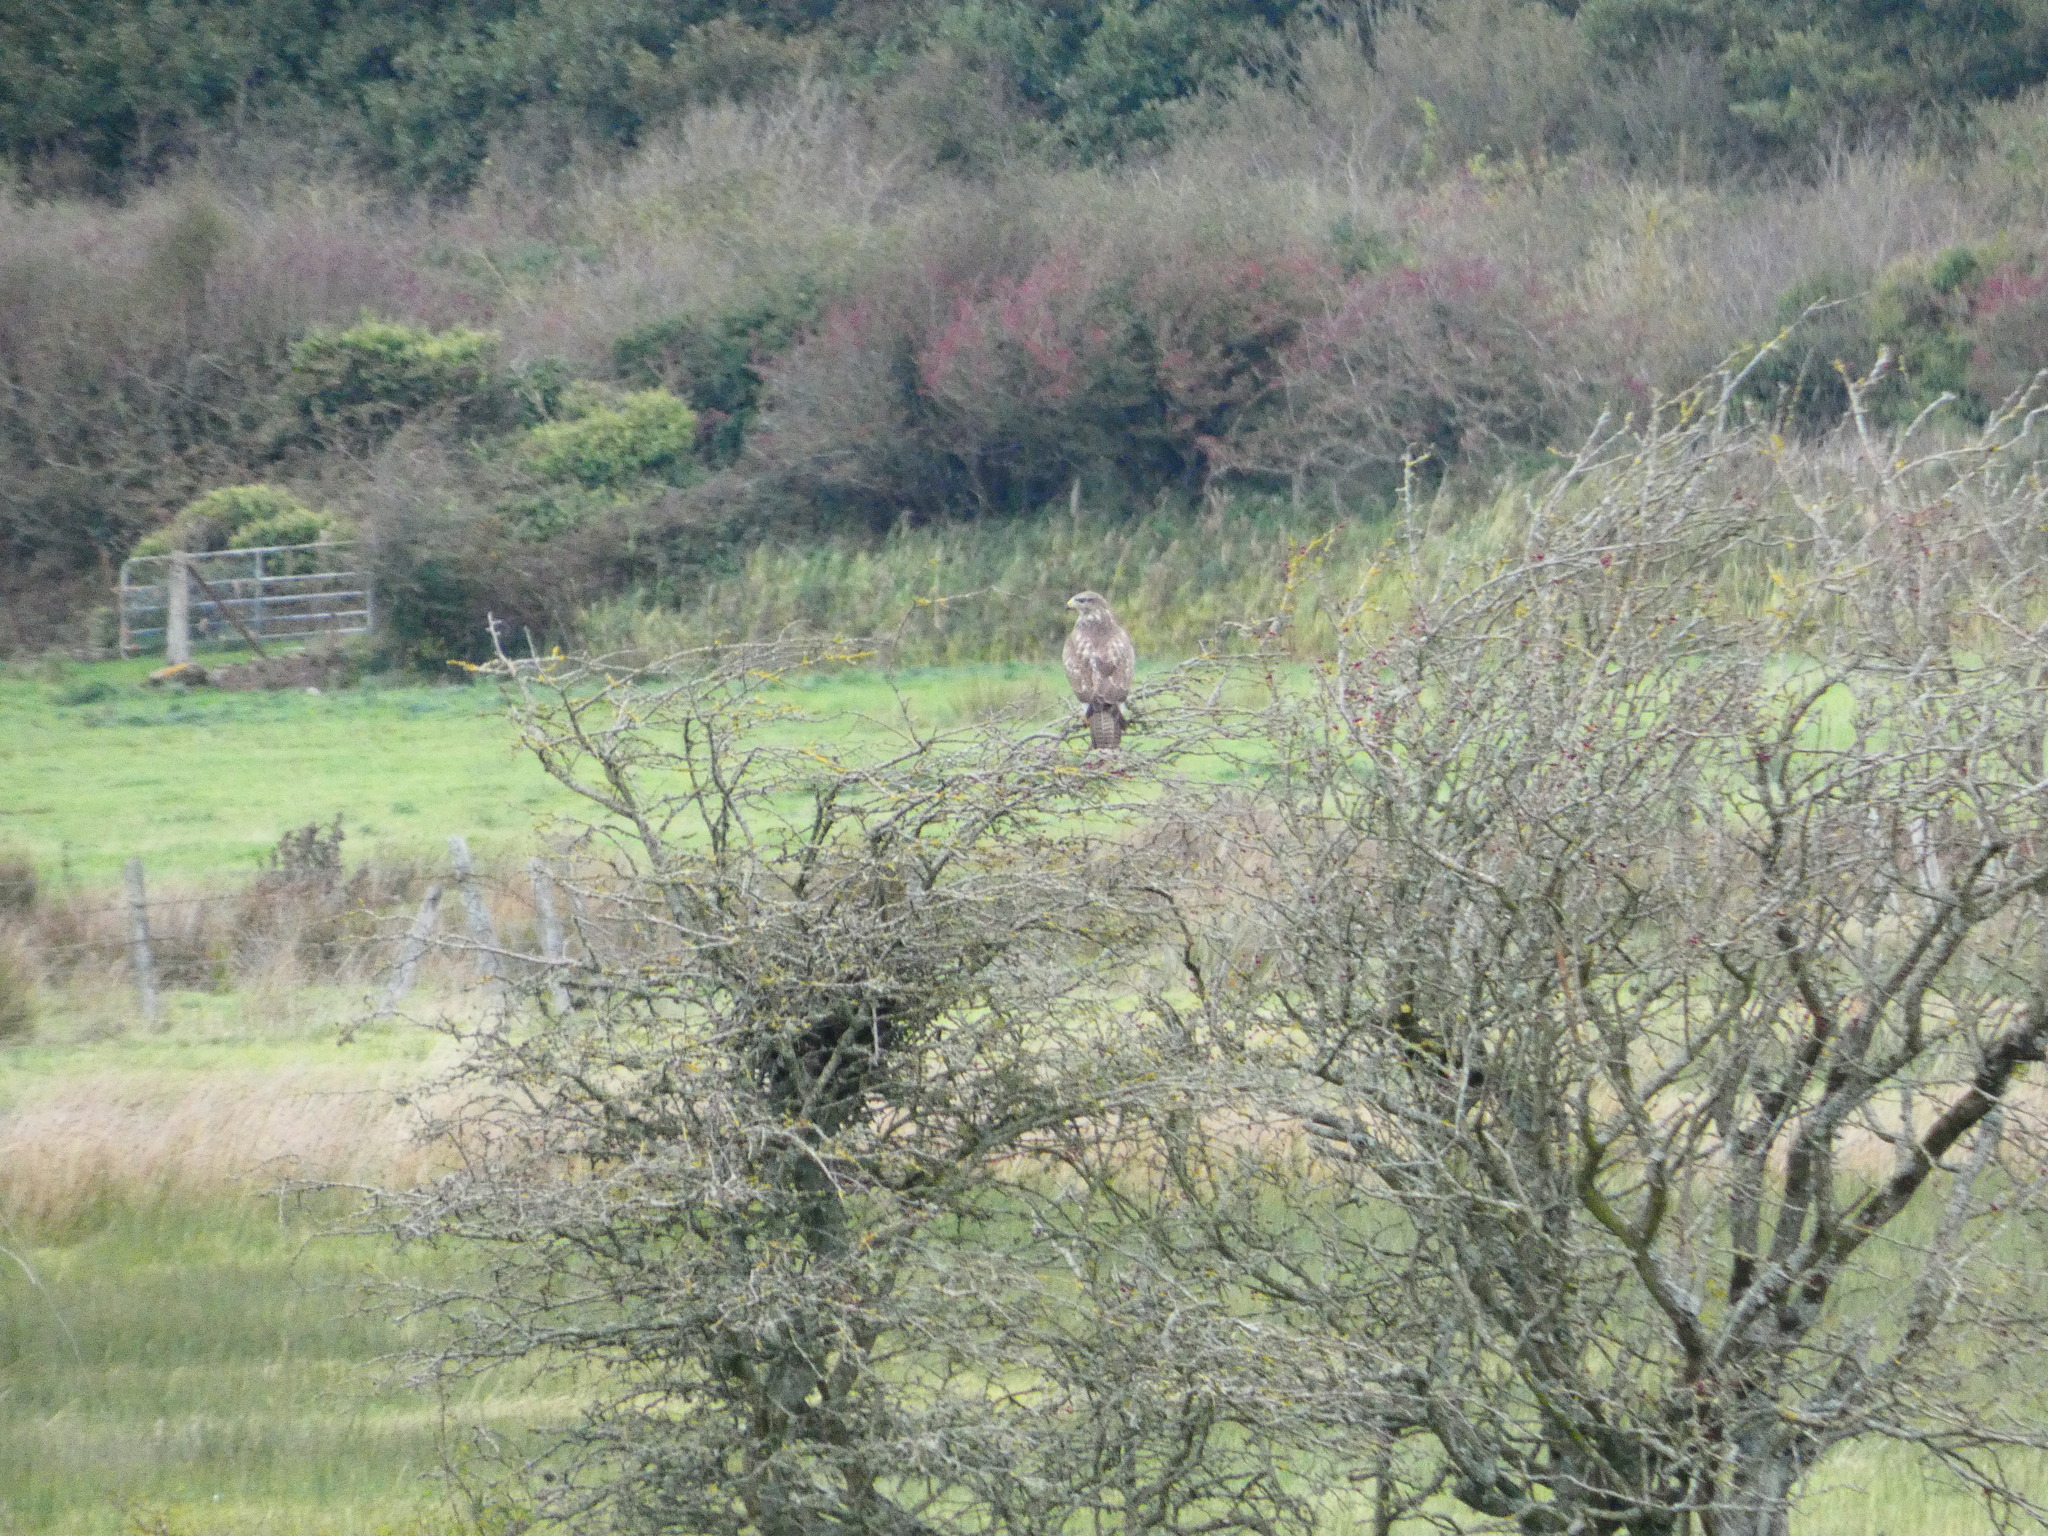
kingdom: Animalia
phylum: Chordata
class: Aves
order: Accipitriformes
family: Accipitridae
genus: Buteo
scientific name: Buteo buteo
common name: Common buzzard
